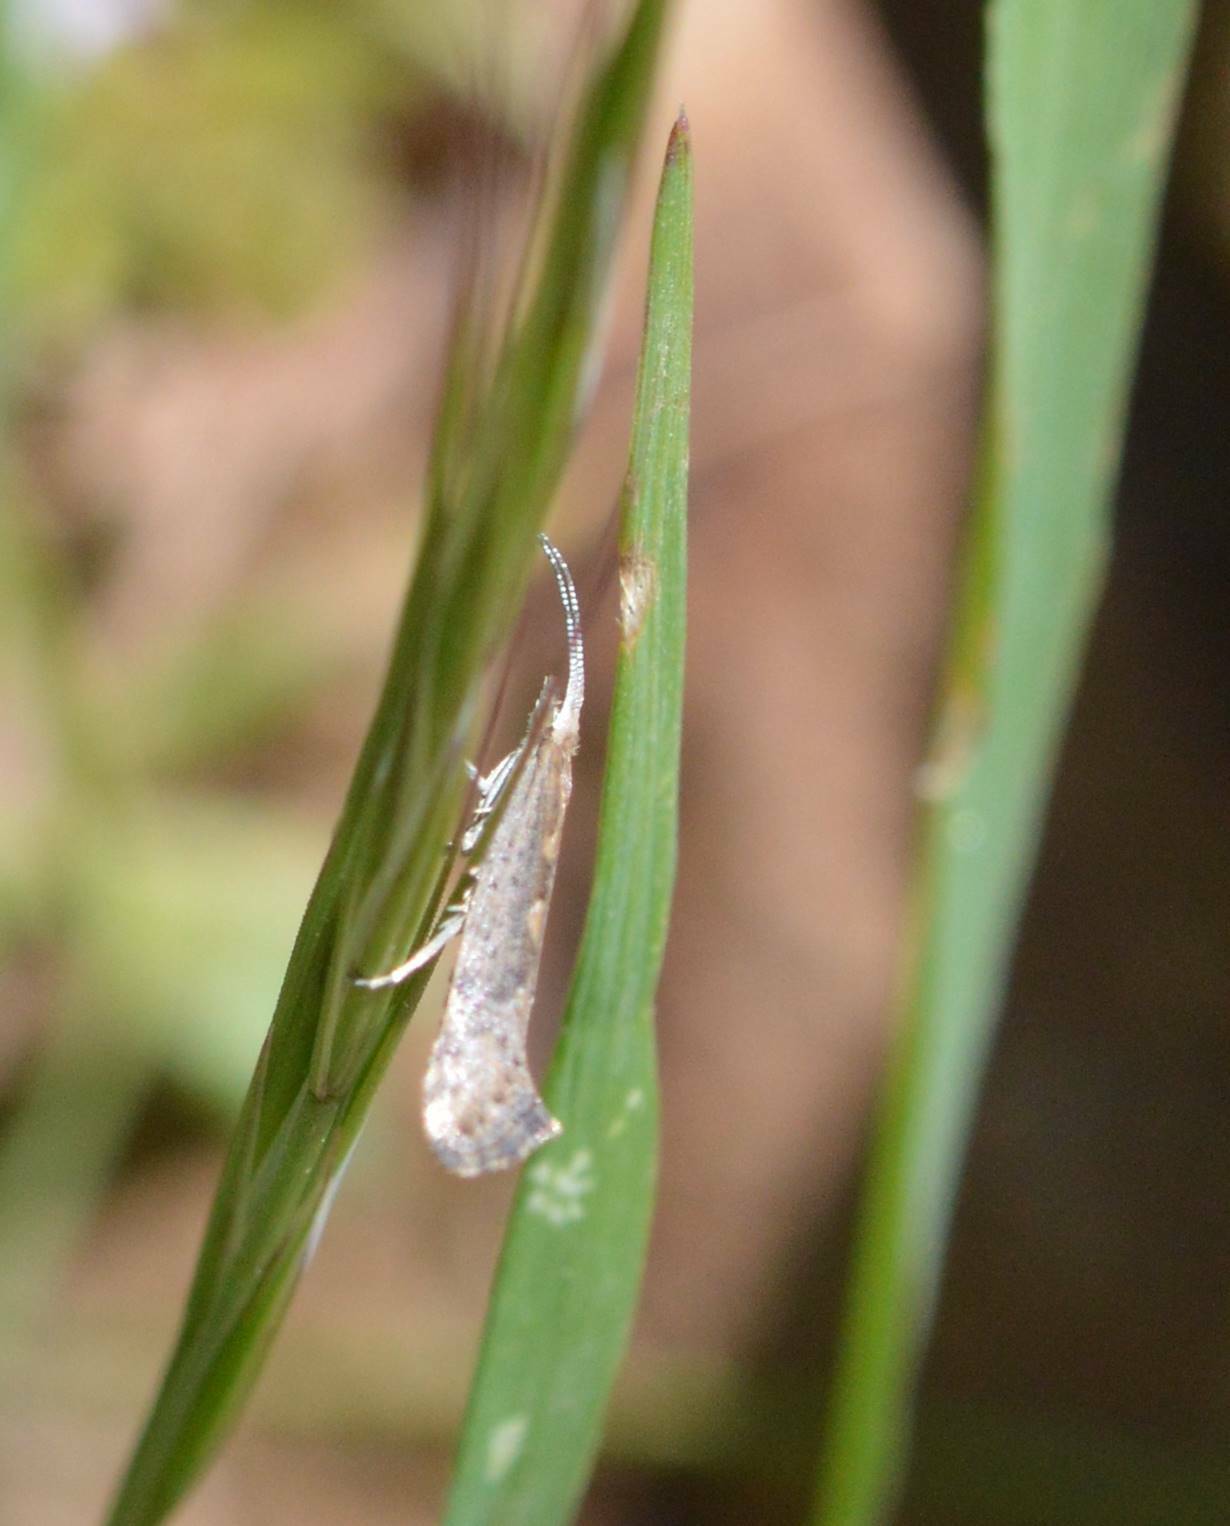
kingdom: Animalia
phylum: Arthropoda
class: Insecta
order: Lepidoptera
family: Plutellidae
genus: Plutella
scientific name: Plutella xylostella
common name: Diamond-back moth
